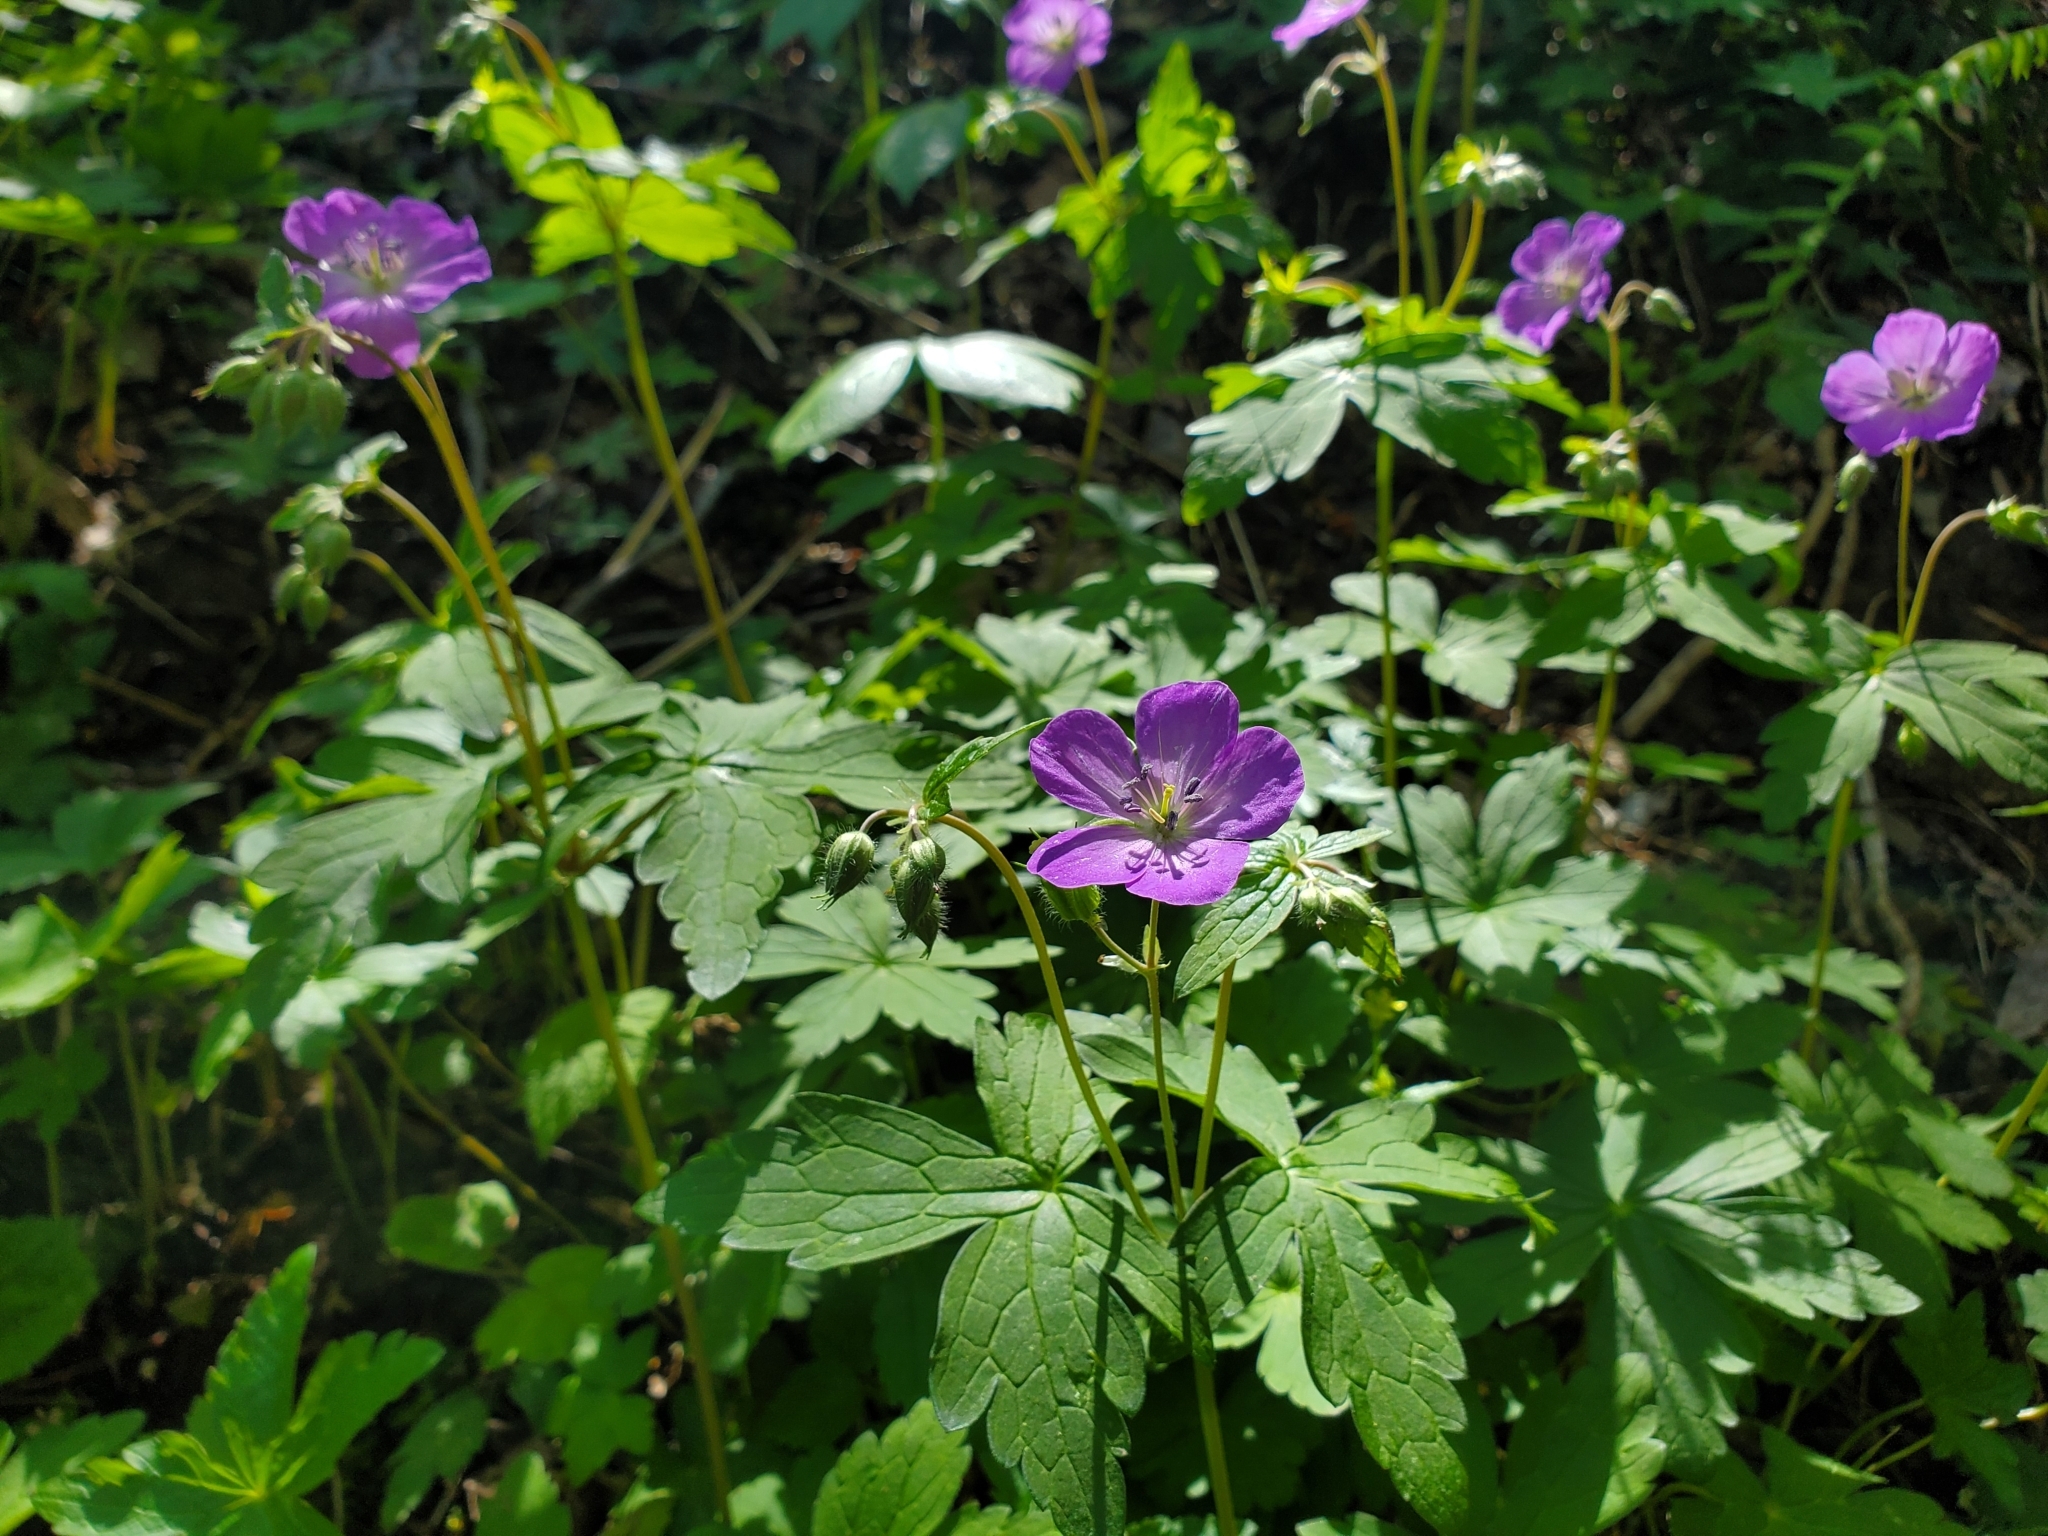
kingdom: Plantae
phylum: Tracheophyta
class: Magnoliopsida
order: Geraniales
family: Geraniaceae
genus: Geranium
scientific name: Geranium maculatum
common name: Spotted geranium
